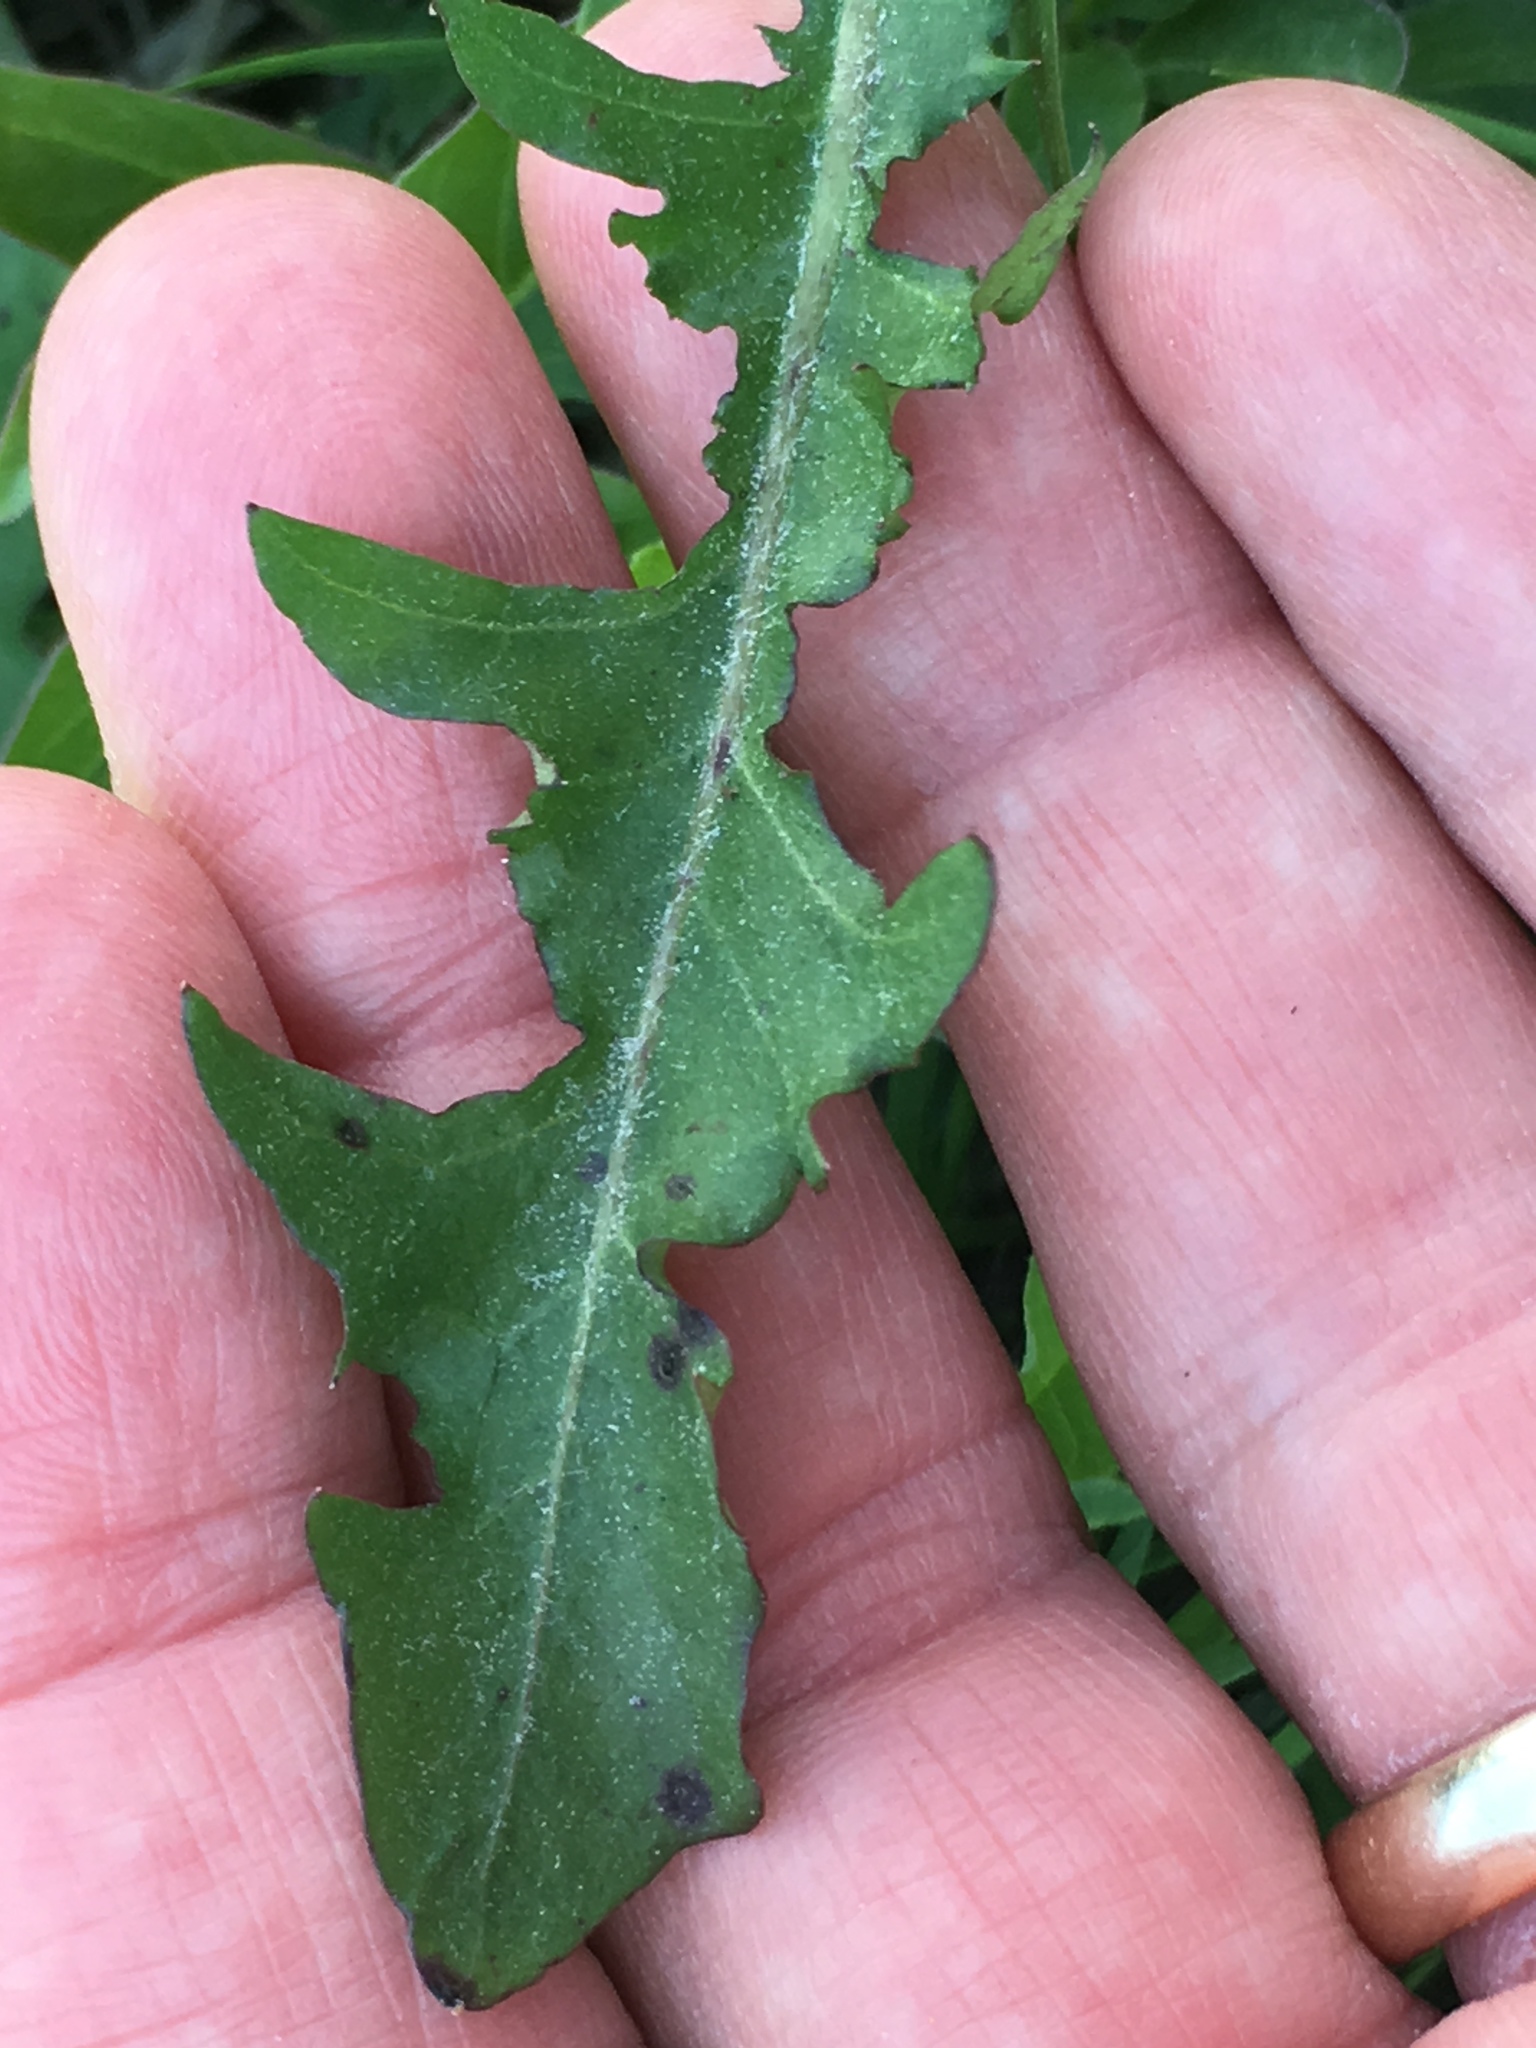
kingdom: Plantae
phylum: Tracheophyta
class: Magnoliopsida
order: Asterales
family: Asteraceae
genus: Taraxacum
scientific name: Taraxacum
